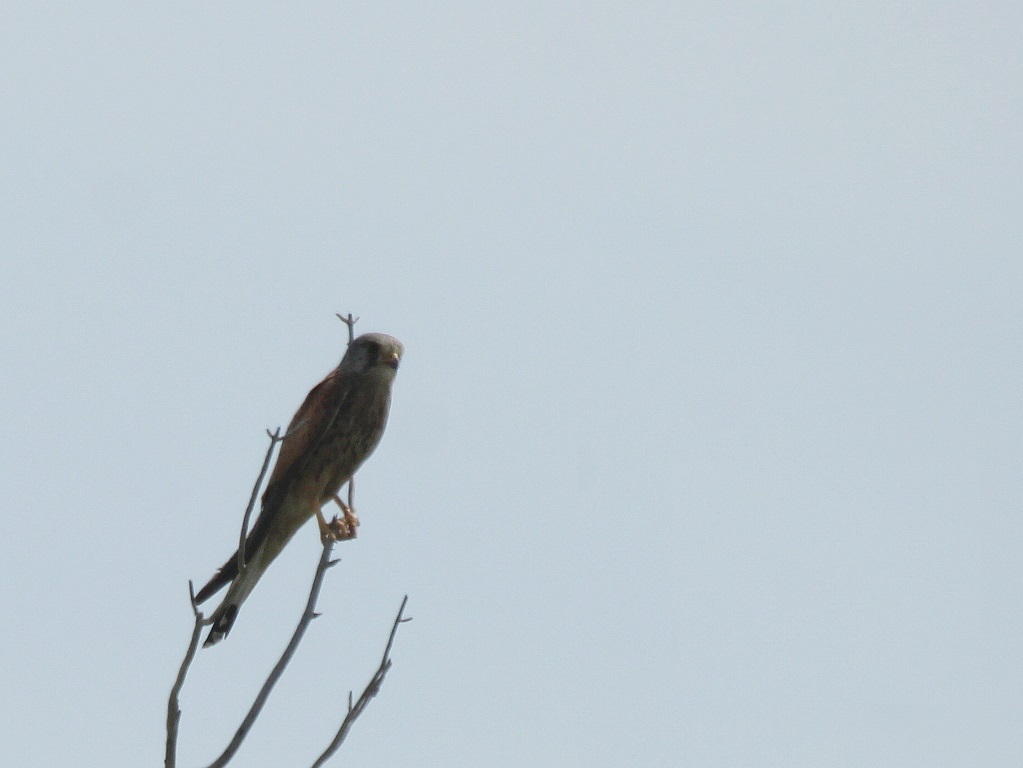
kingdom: Animalia
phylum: Chordata
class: Aves
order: Falconiformes
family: Falconidae
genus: Falco
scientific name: Falco tinnunculus
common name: Common kestrel
